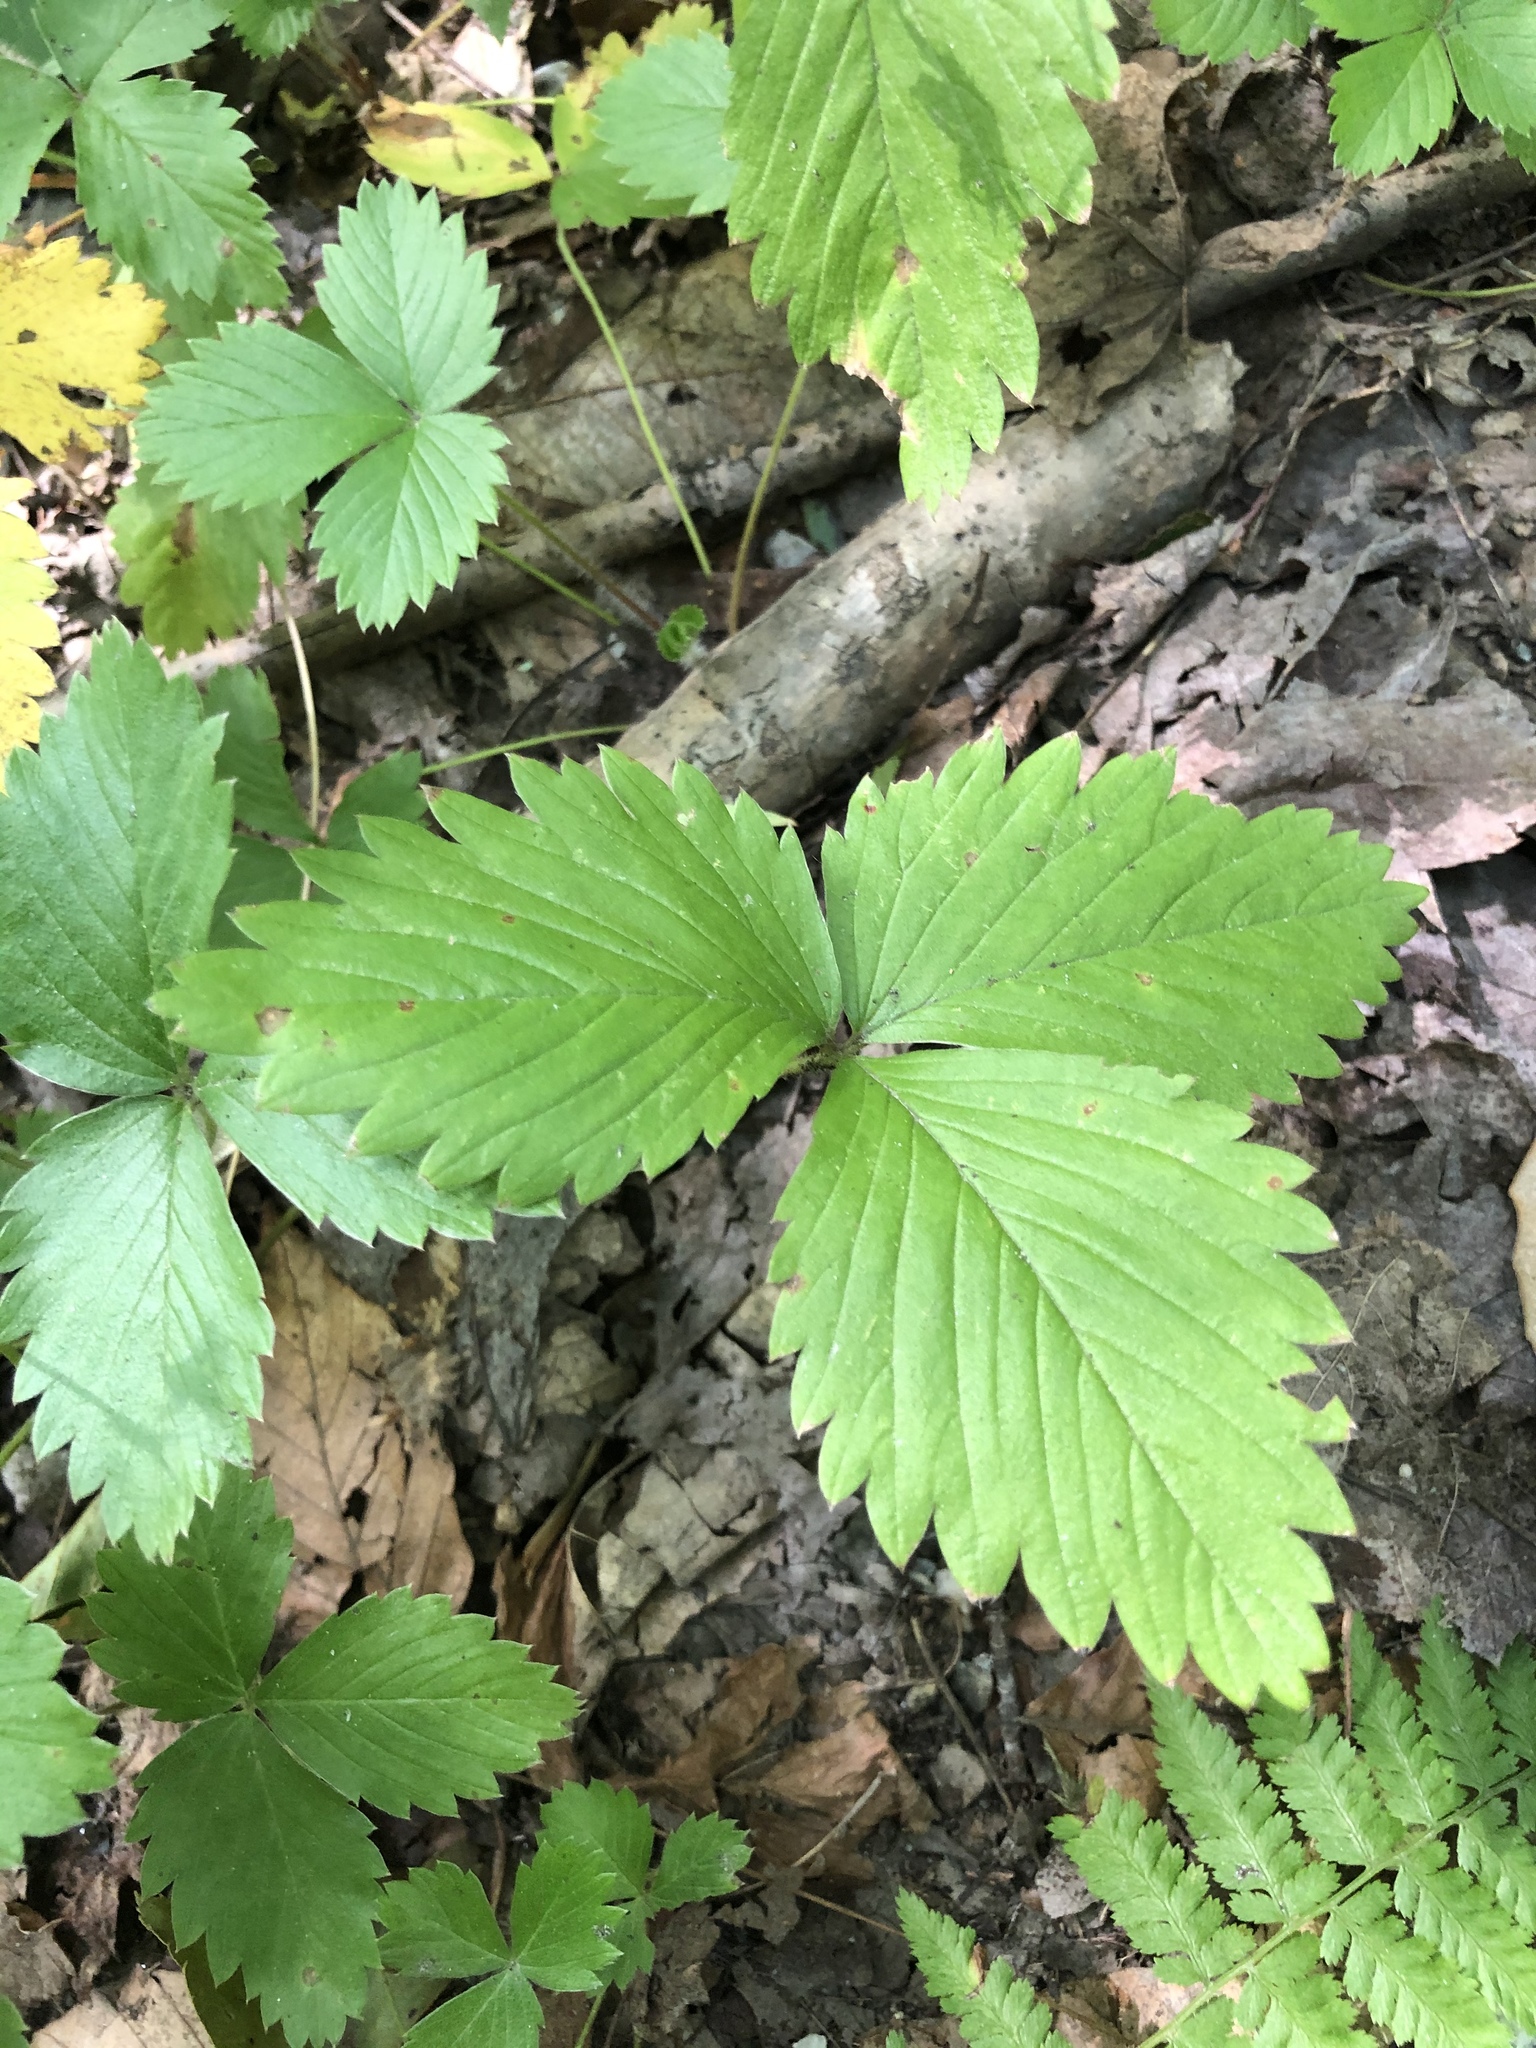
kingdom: Plantae
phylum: Tracheophyta
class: Magnoliopsida
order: Rosales
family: Rosaceae
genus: Fragaria
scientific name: Fragaria vesca
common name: Wild strawberry
